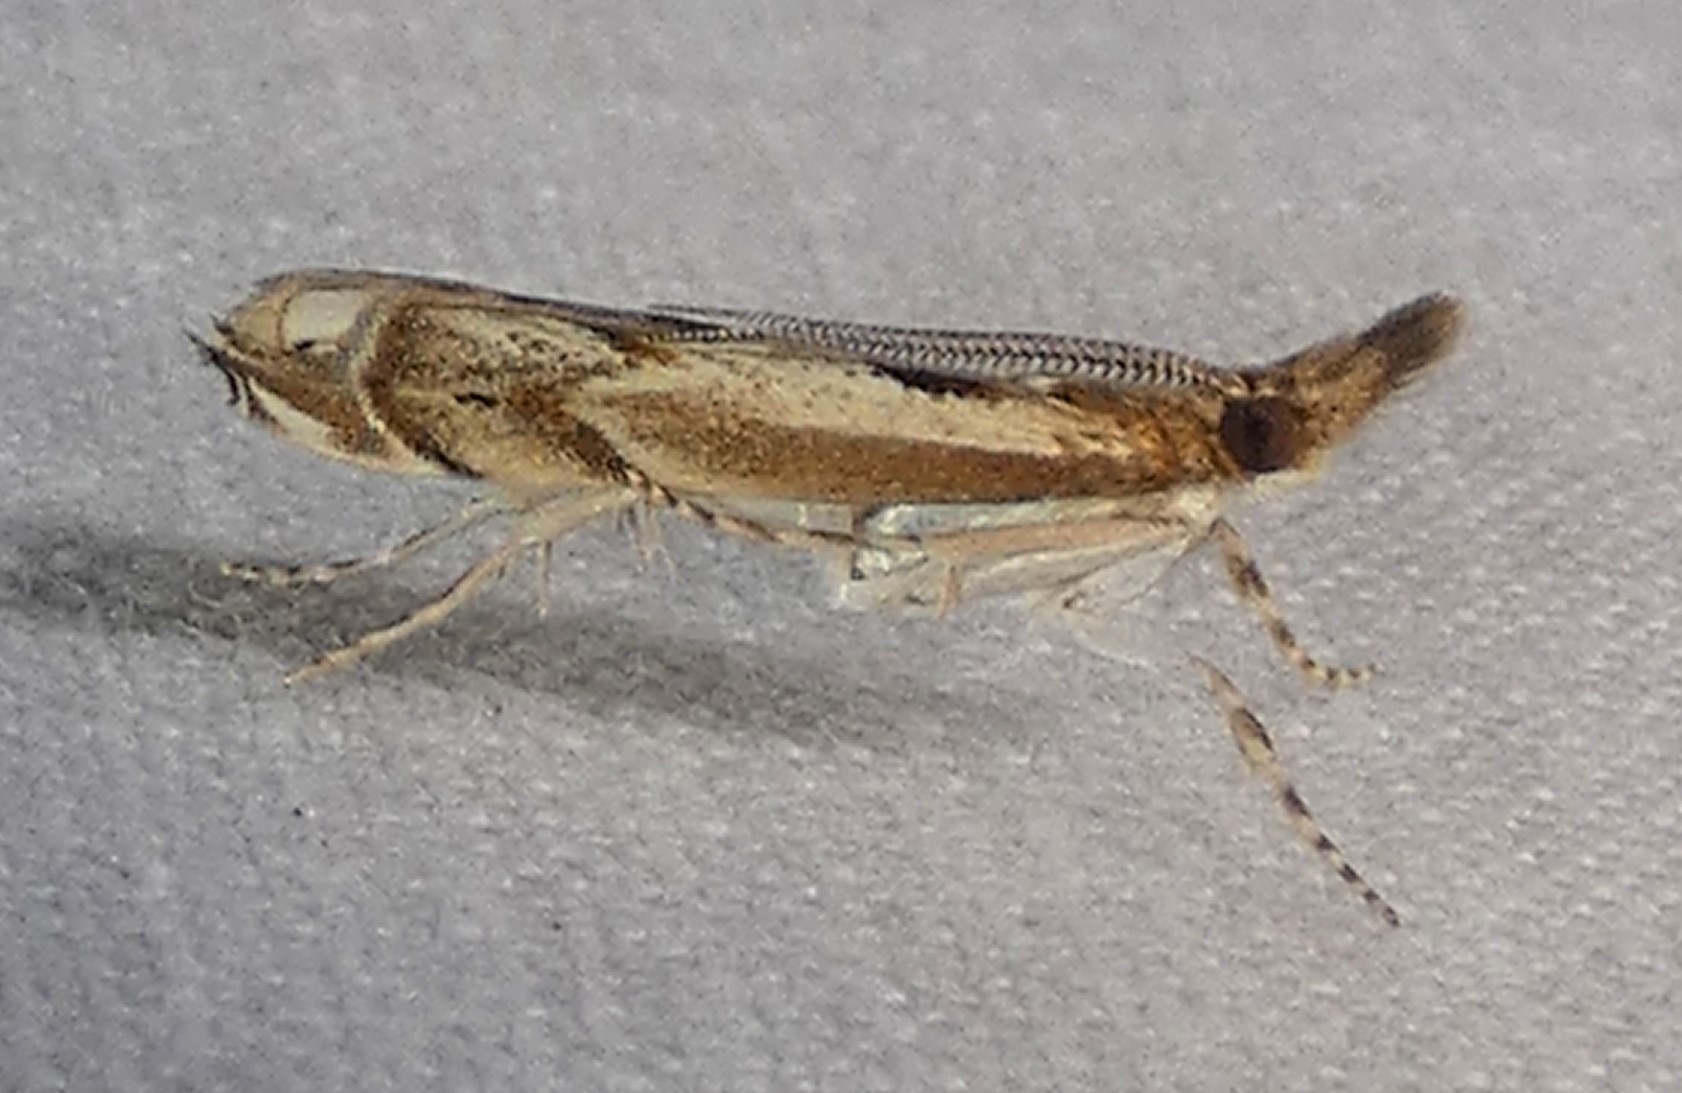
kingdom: Animalia
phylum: Arthropoda
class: Insecta
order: Lepidoptera
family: Crambidae
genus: Prionapteryx
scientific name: Prionapteryx achatina
